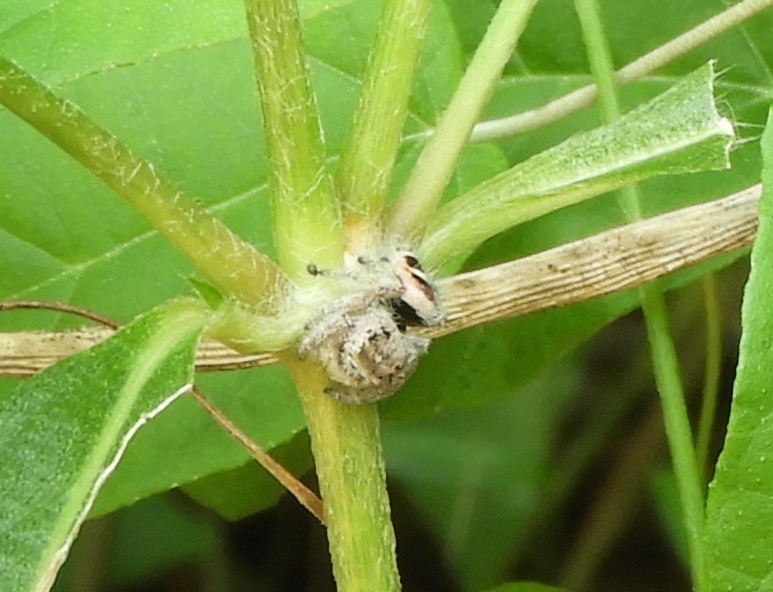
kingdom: Animalia
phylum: Arthropoda
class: Arachnida
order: Araneae
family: Salticidae
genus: Phidippus
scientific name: Phidippus pacosauritus
